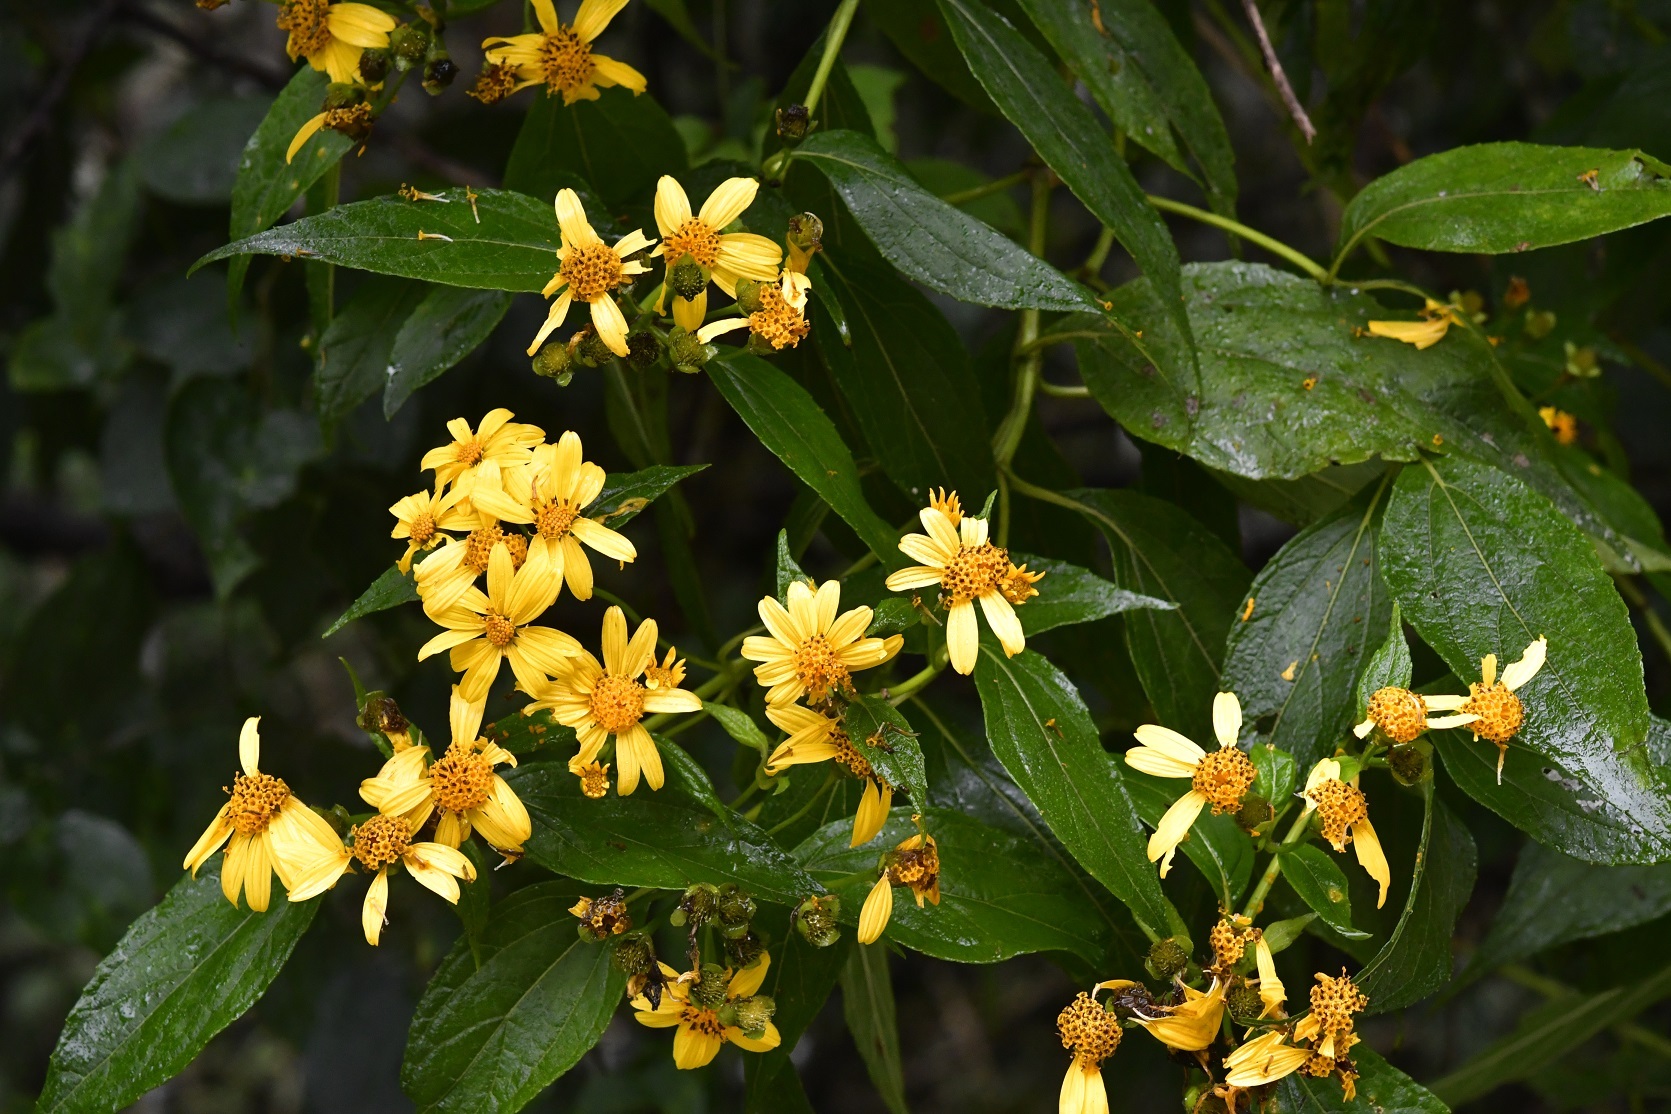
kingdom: Plantae
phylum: Tracheophyta
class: Magnoliopsida
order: Asterales
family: Asteraceae
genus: Perymenium
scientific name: Perymenium grande
